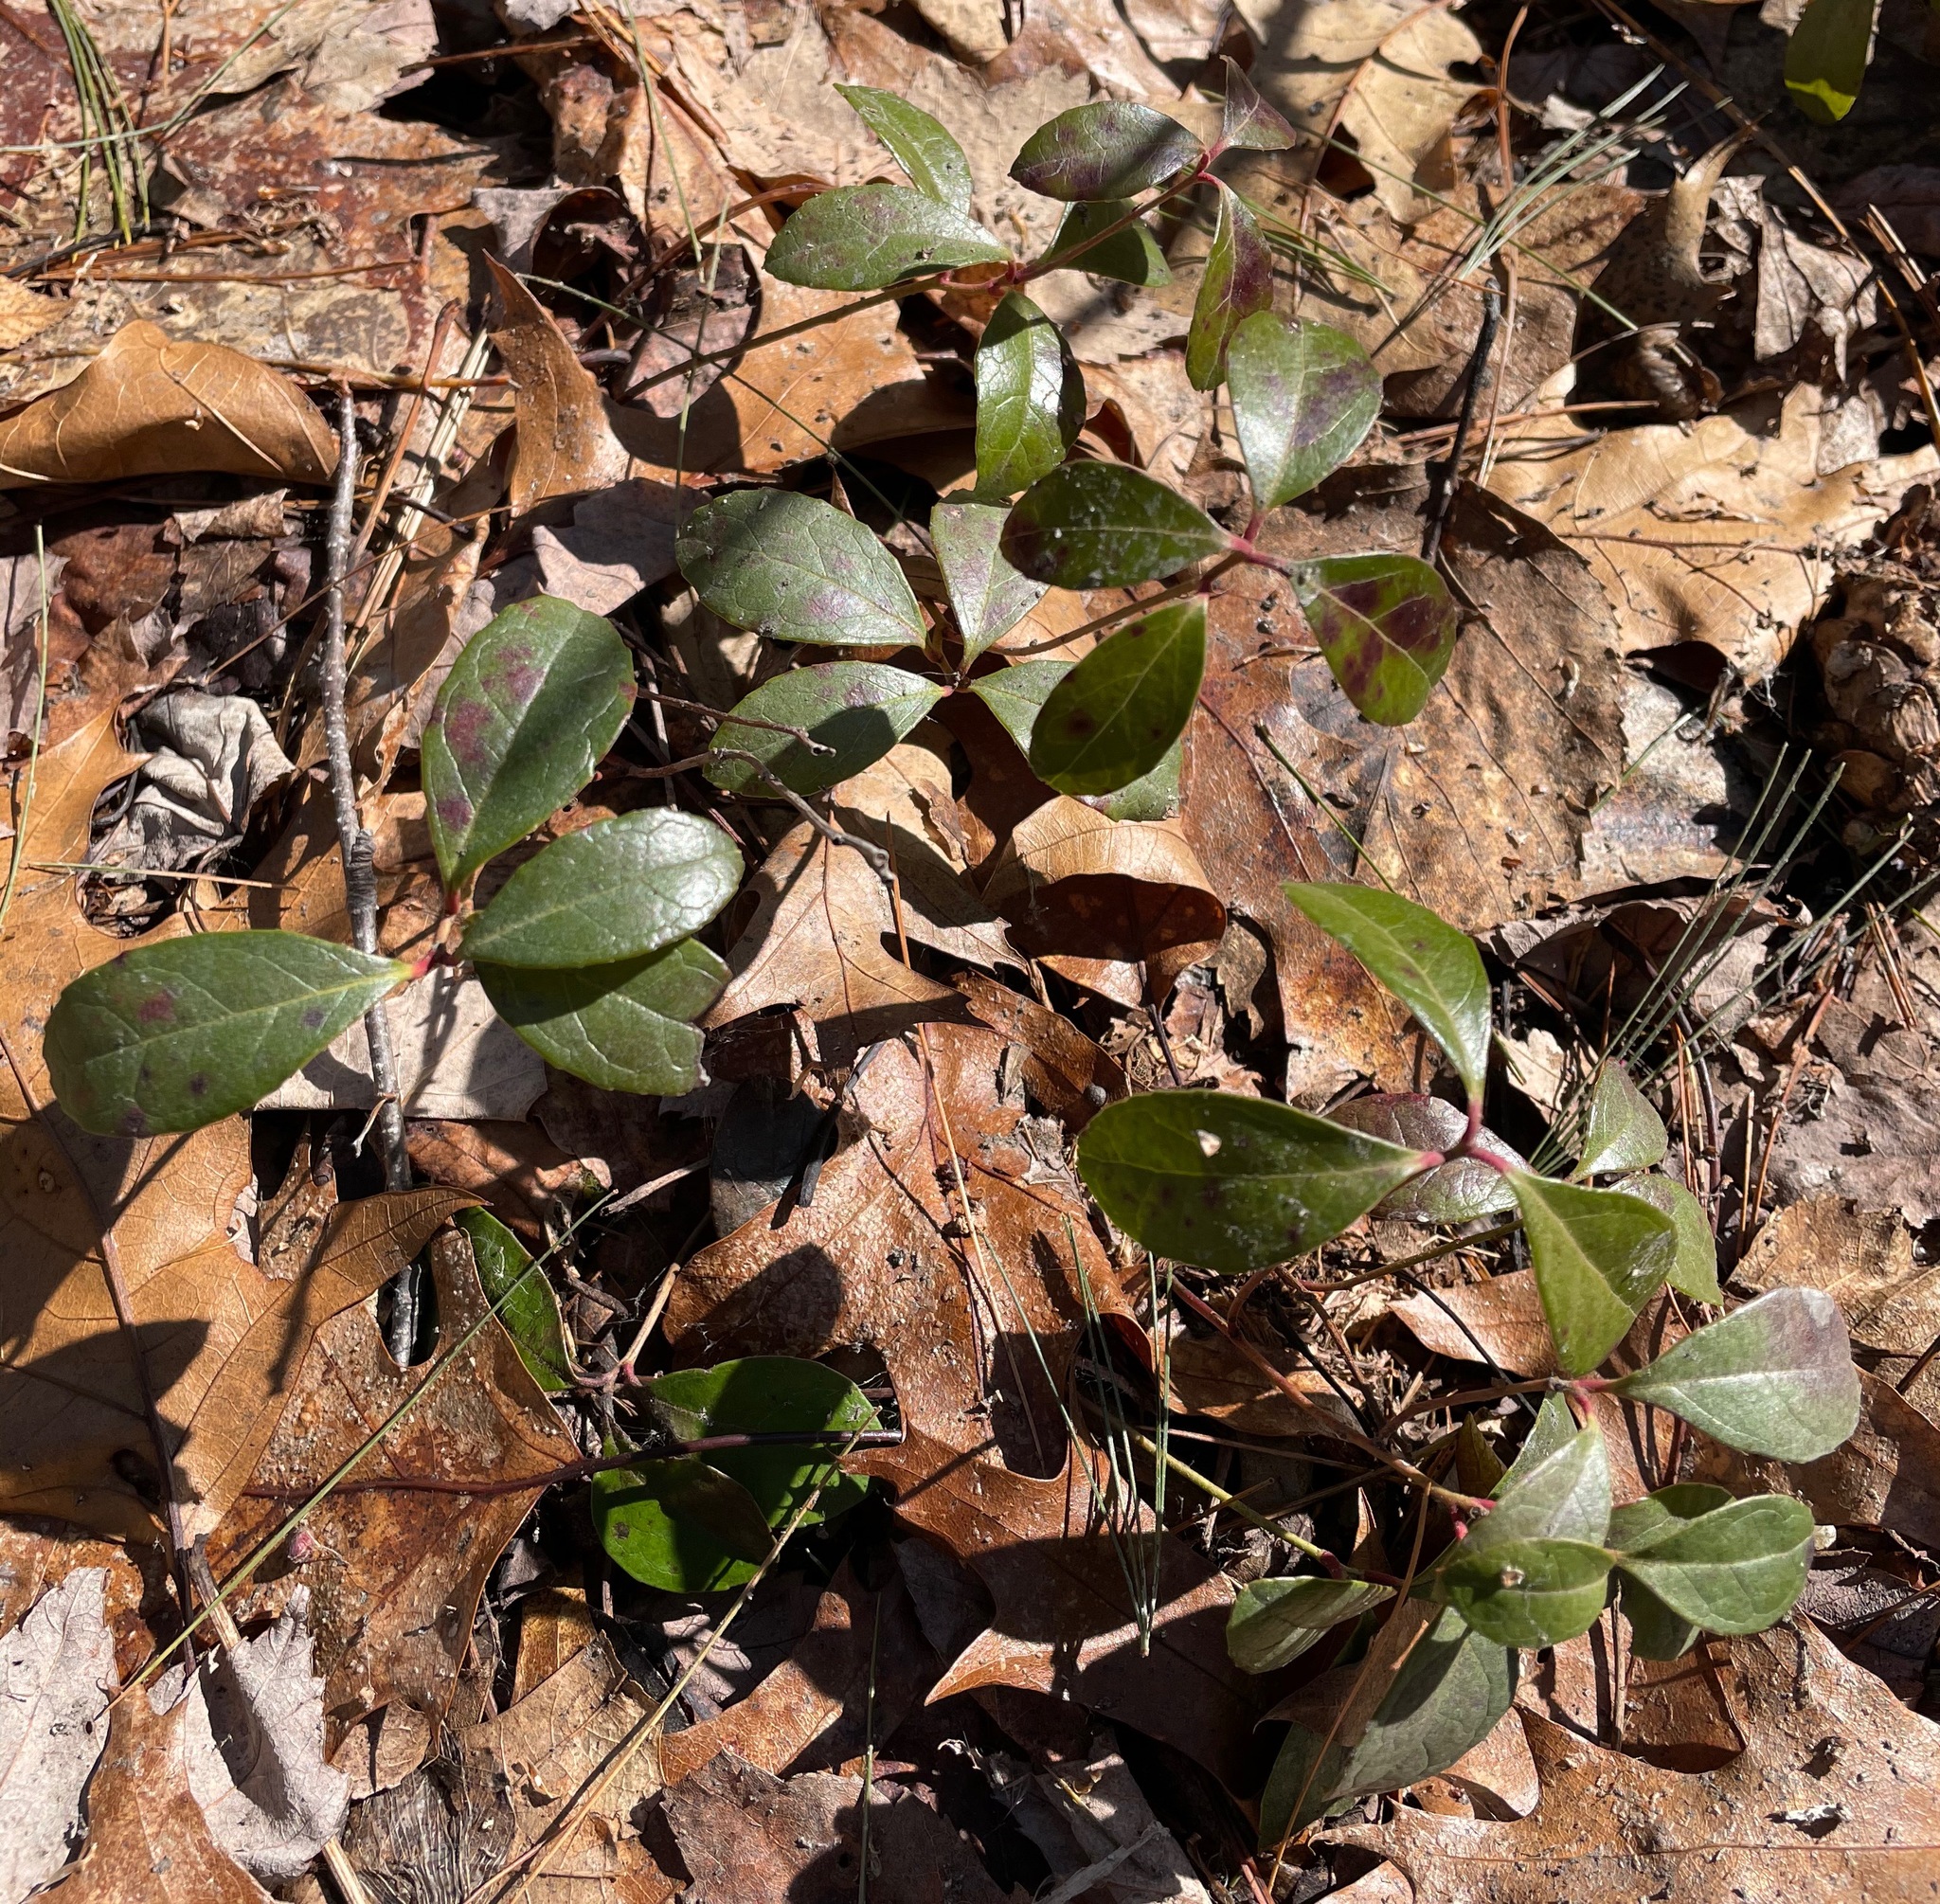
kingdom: Plantae
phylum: Tracheophyta
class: Magnoliopsida
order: Ericales
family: Ericaceae
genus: Gaultheria
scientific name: Gaultheria procumbens
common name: Checkerberry
